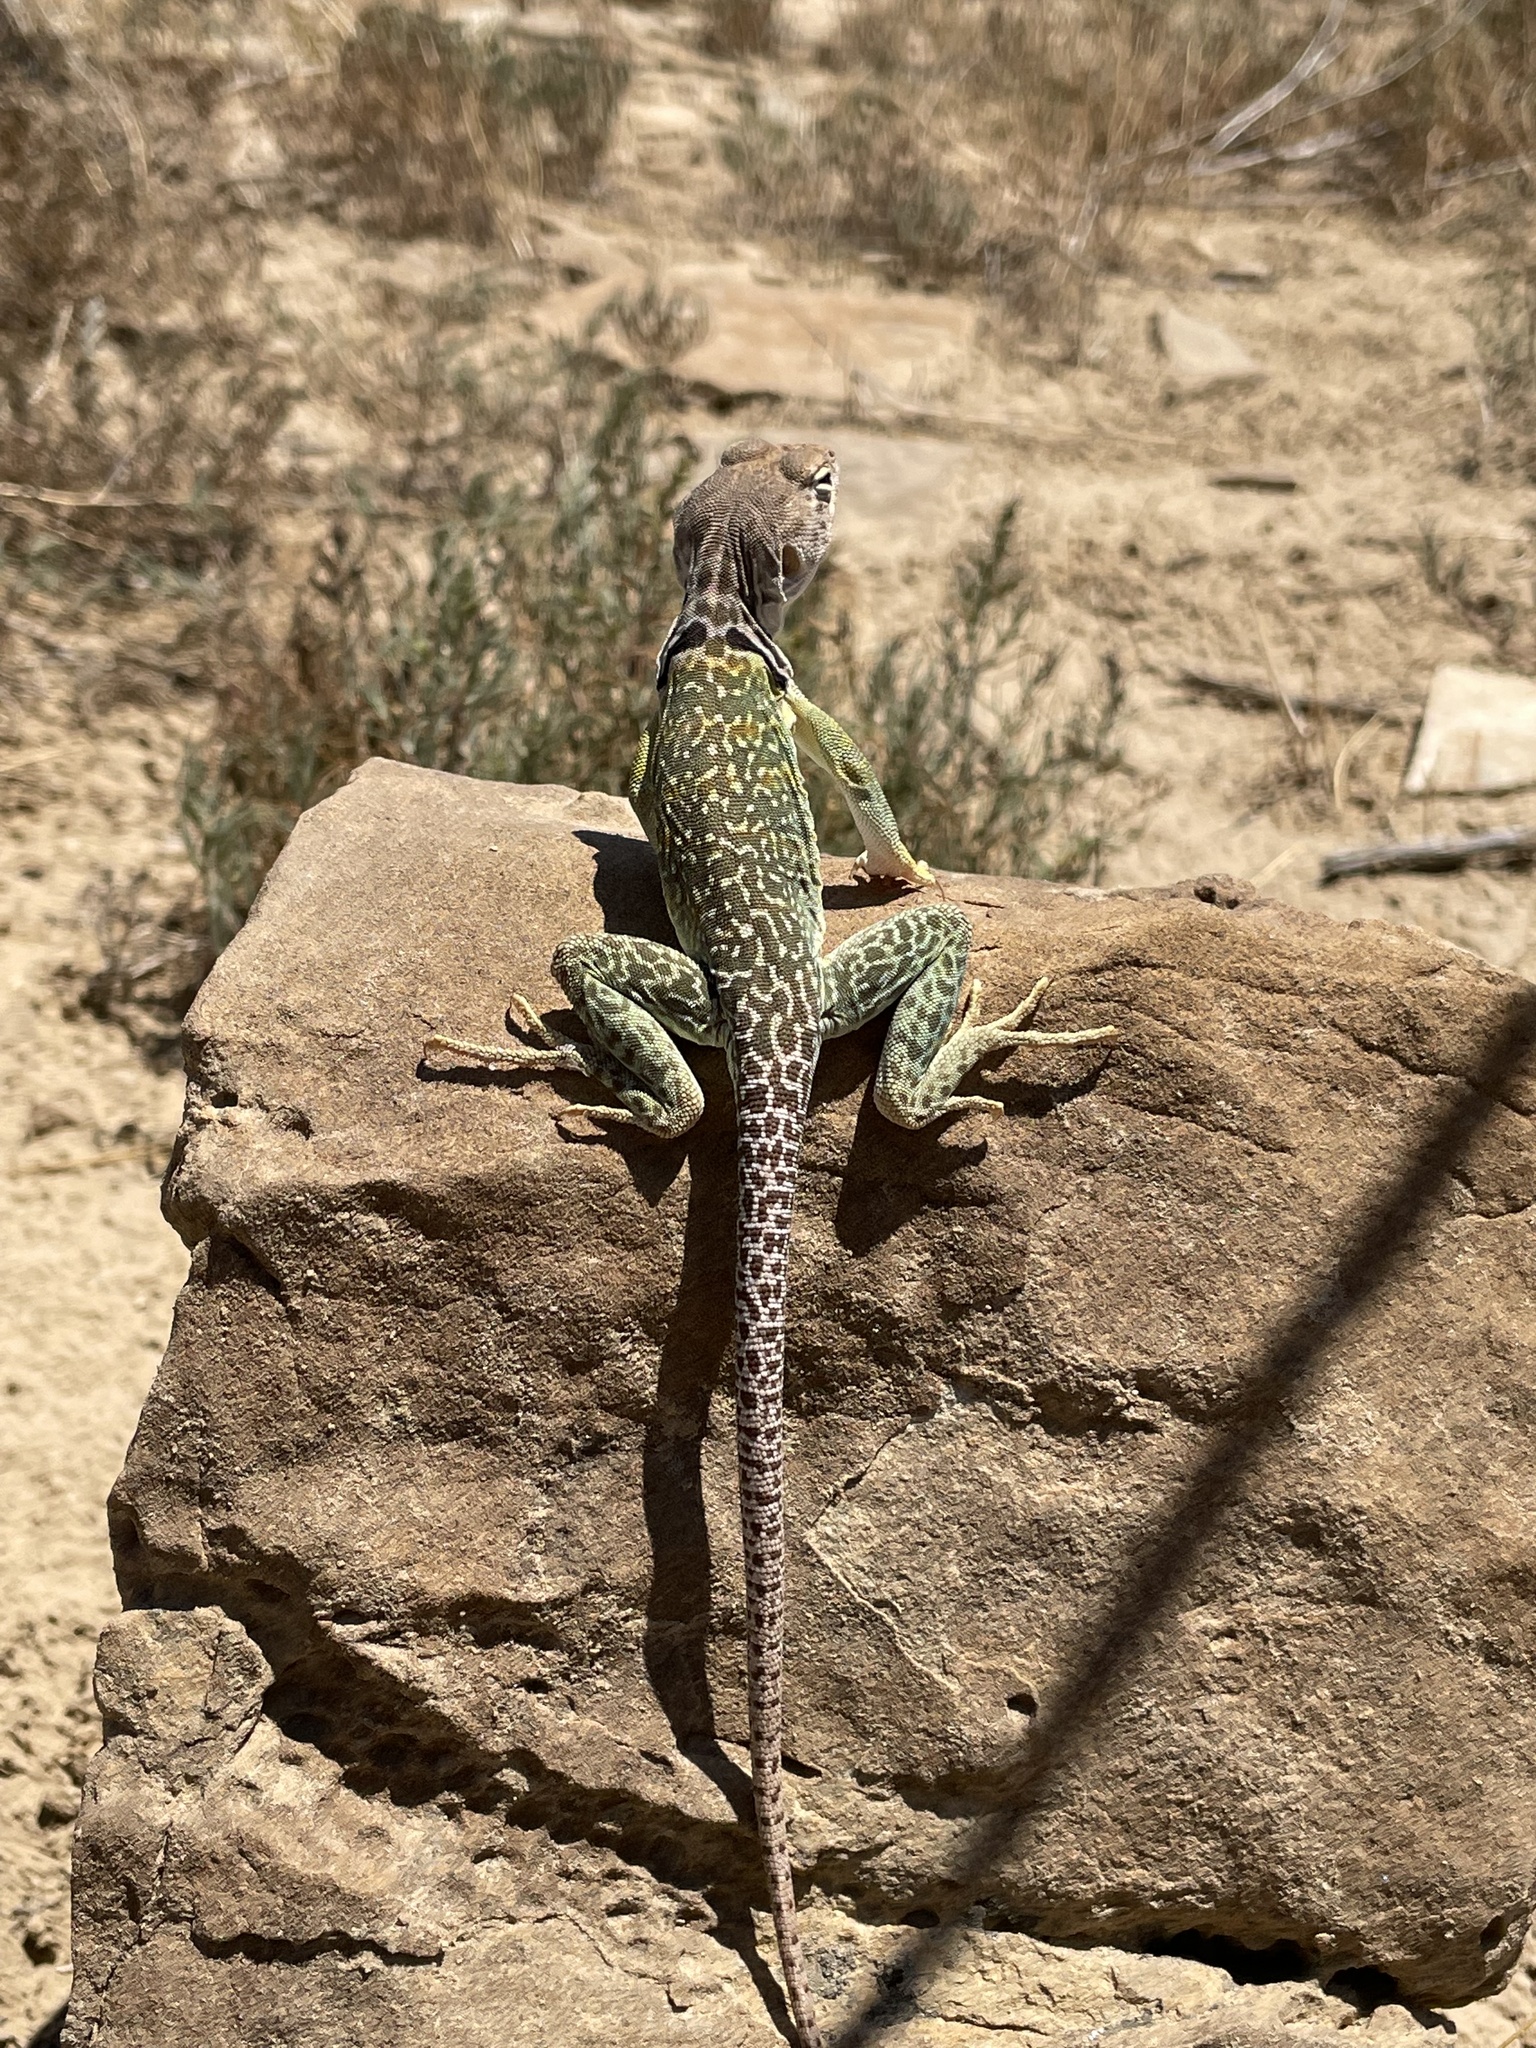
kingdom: Animalia
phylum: Chordata
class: Squamata
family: Crotaphytidae
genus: Crotaphytus
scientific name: Crotaphytus collaris
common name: Collared lizard
